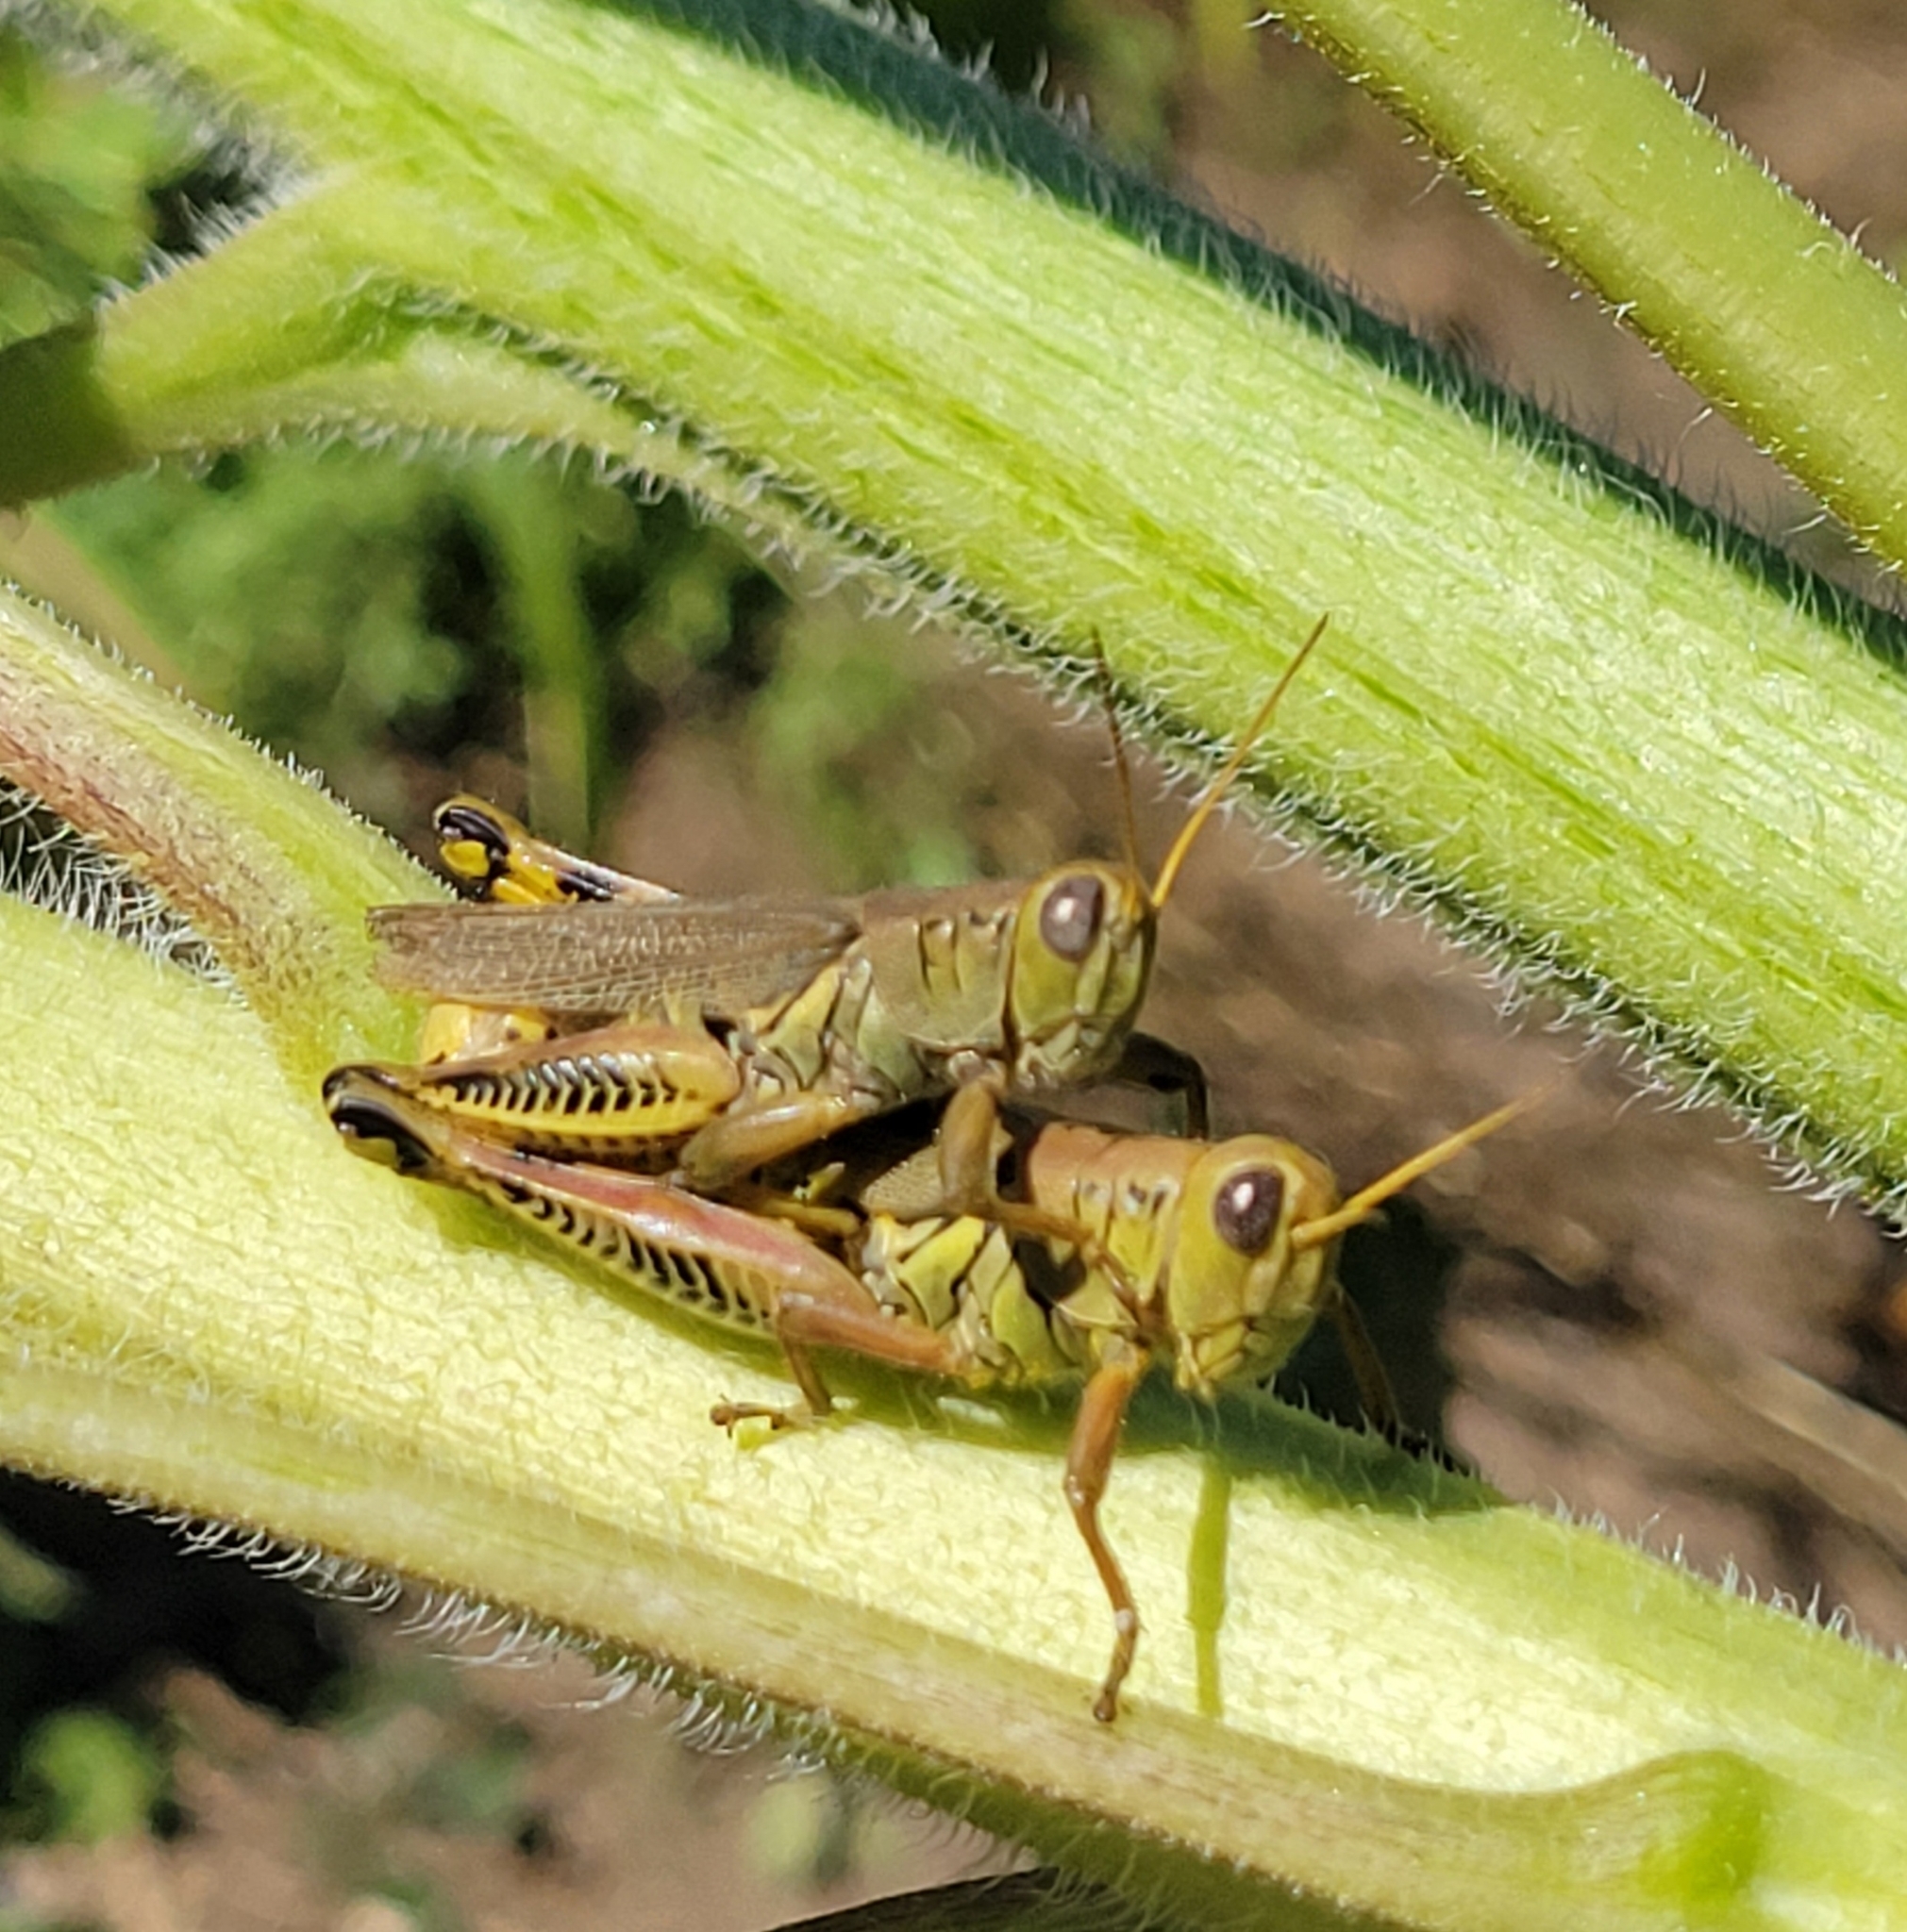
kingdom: Animalia
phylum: Arthropoda
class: Insecta
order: Orthoptera
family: Acrididae
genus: Melanoplus
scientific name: Melanoplus differentialis
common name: Differential grasshopper
